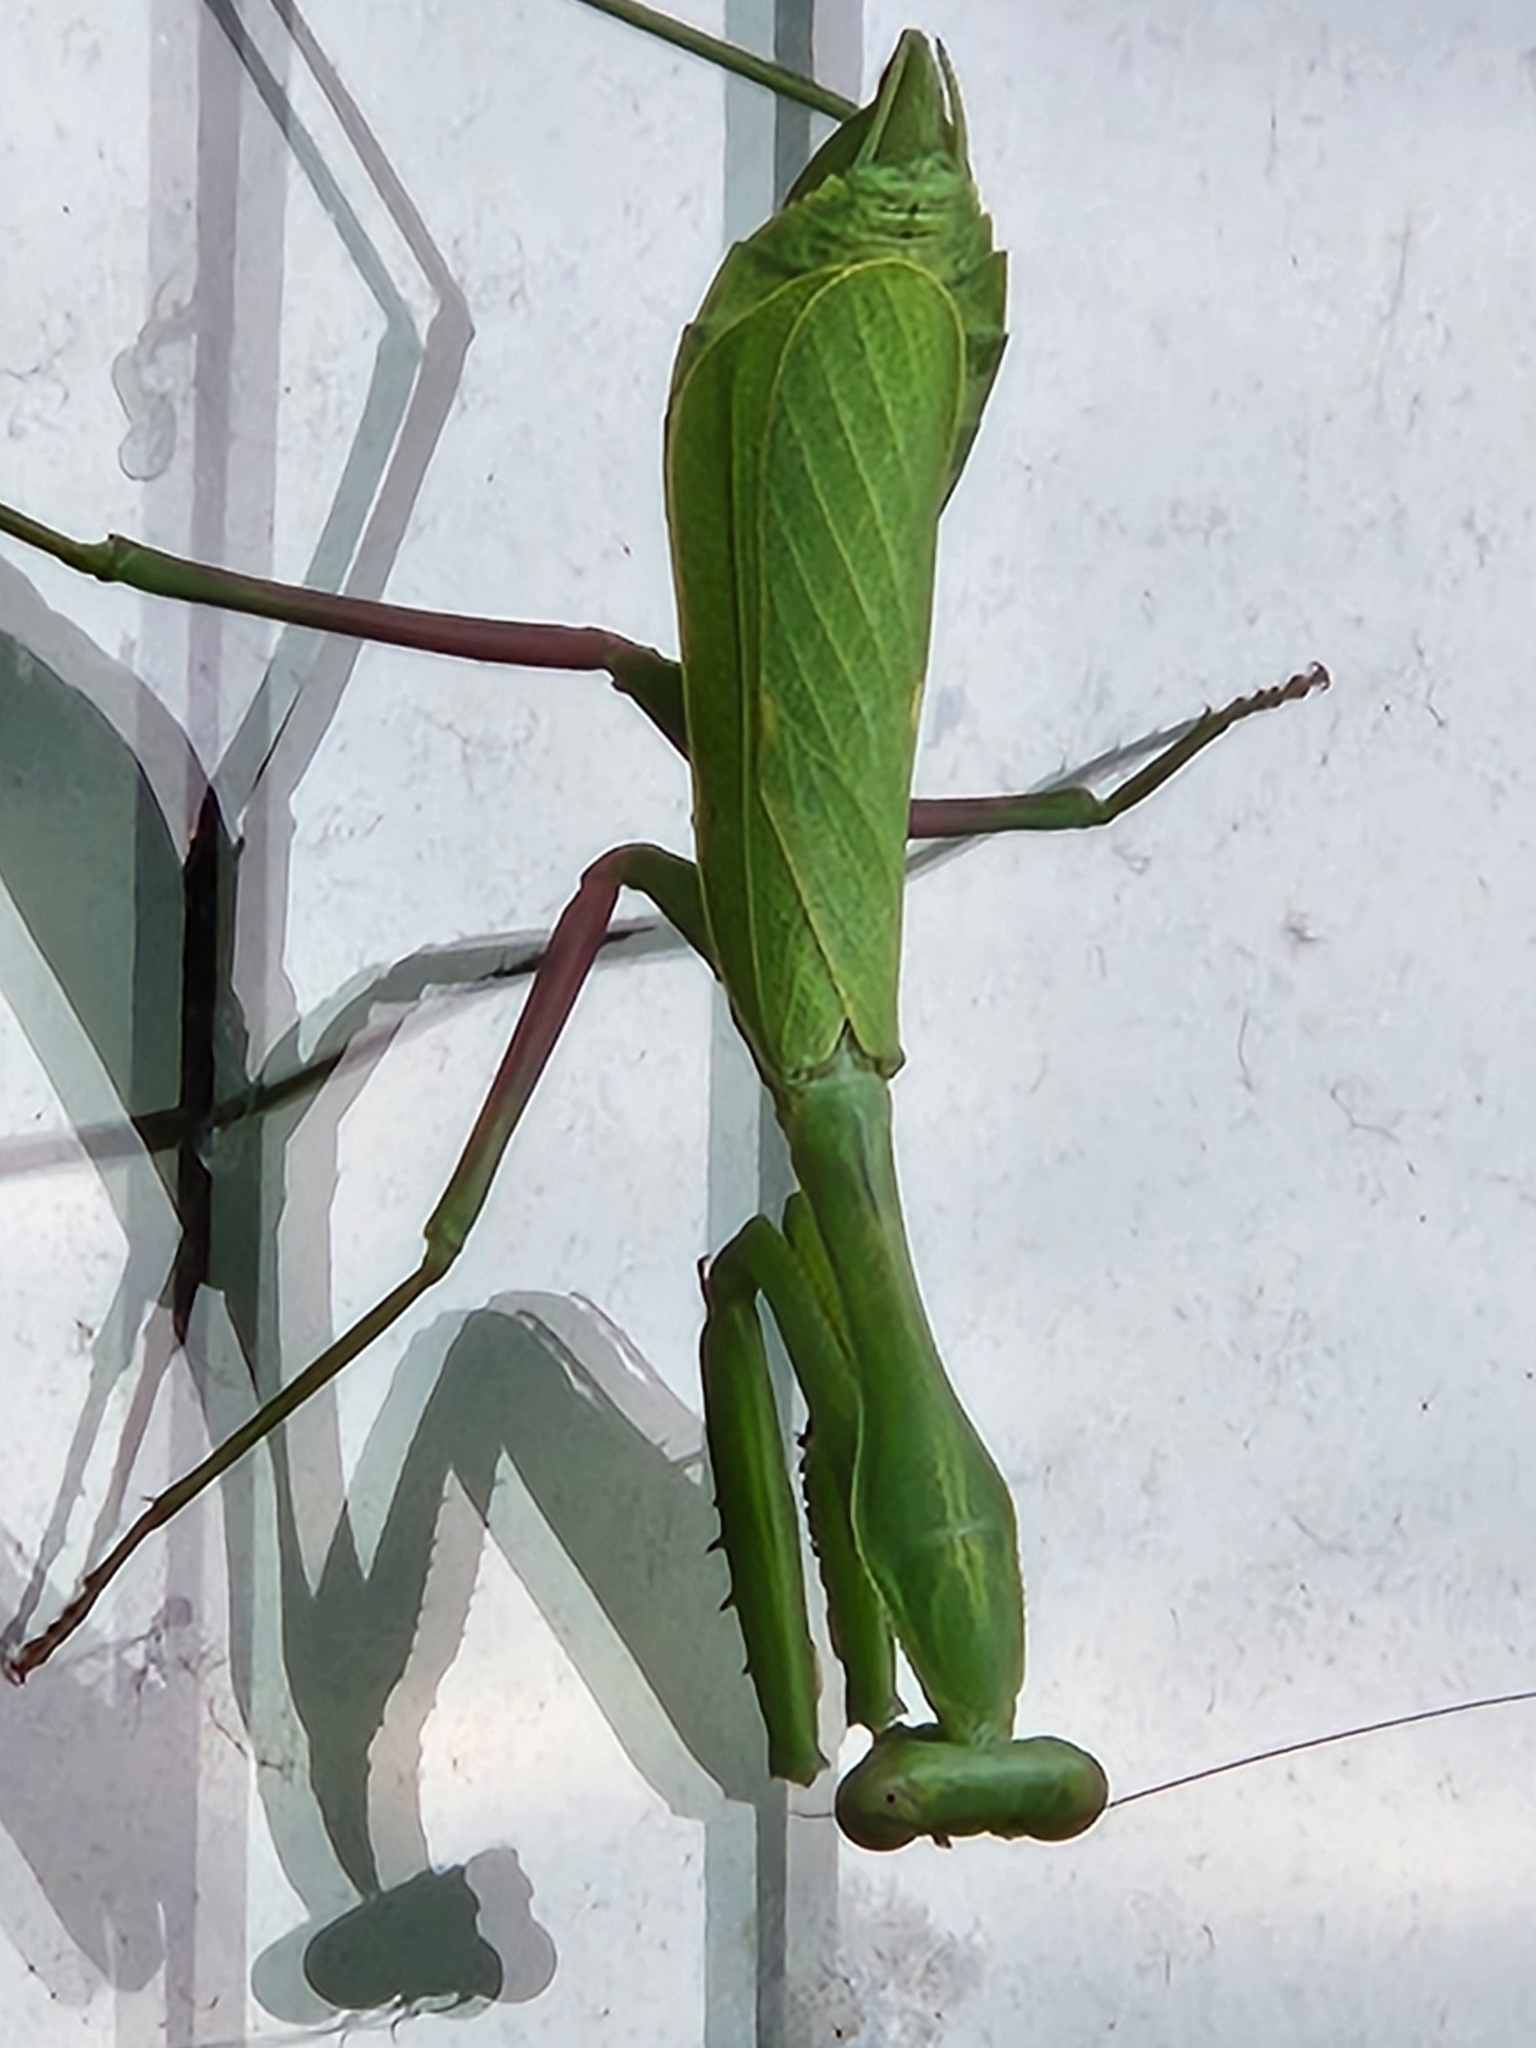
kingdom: Animalia
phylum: Arthropoda
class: Insecta
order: Mantodea
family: Mantidae
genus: Stagmomantis
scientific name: Stagmomantis limbata
